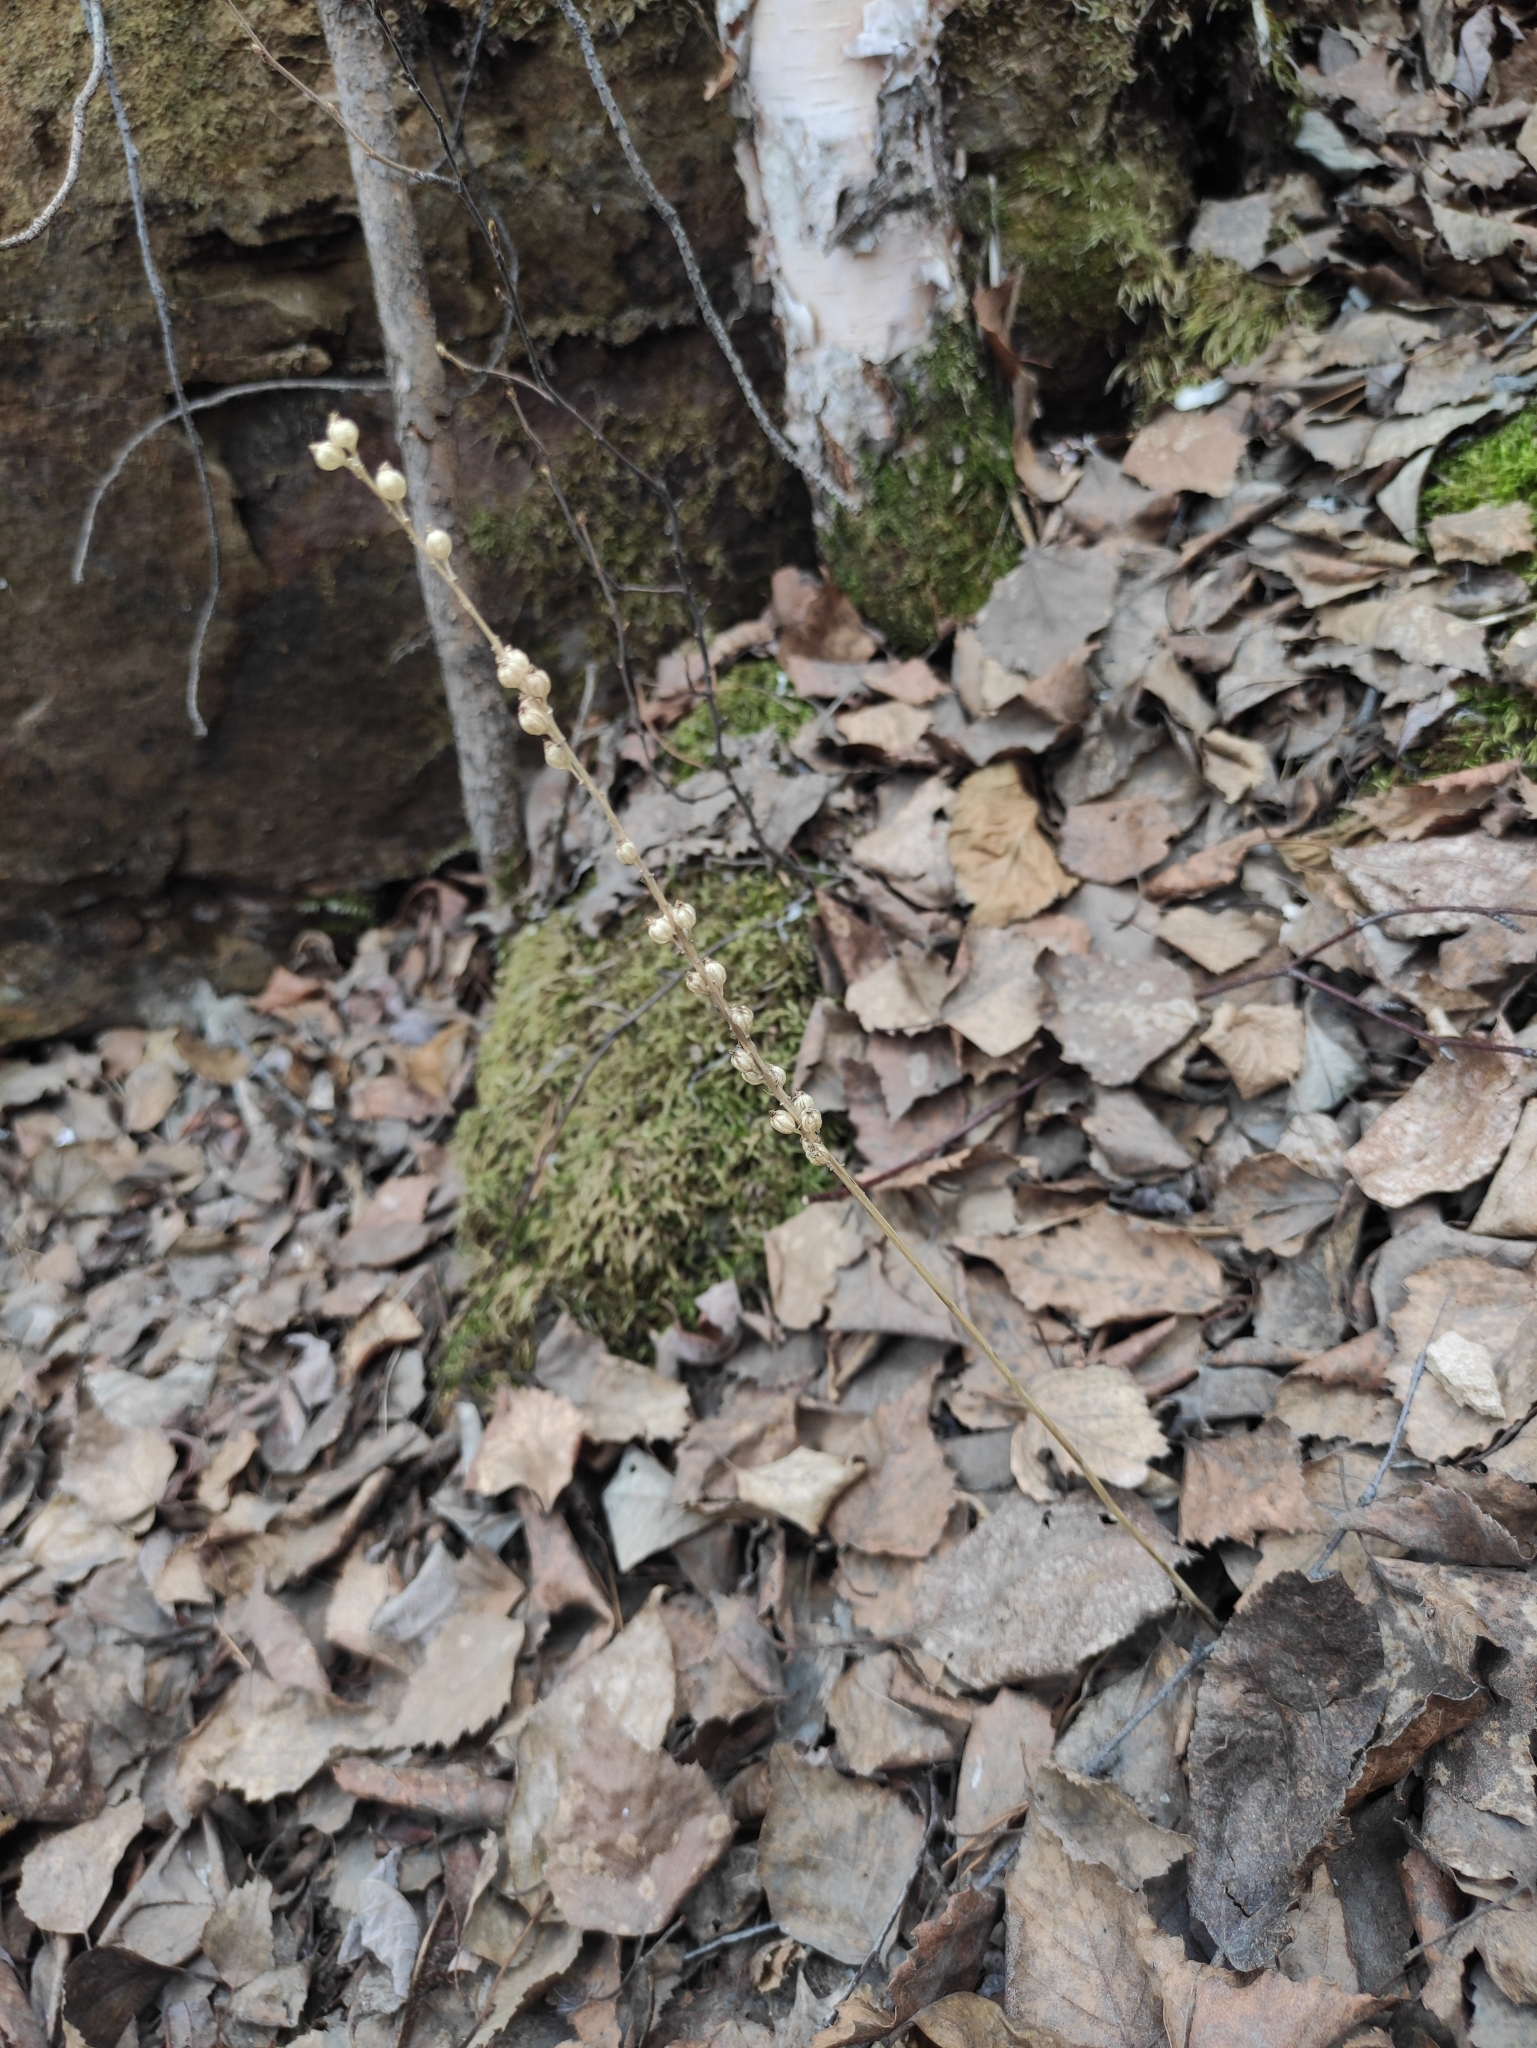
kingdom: Plantae
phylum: Tracheophyta
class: Liliopsida
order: Asparagales
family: Orchidaceae
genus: Malaxis
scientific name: Malaxis monophyllos
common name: White adder's-mouth
